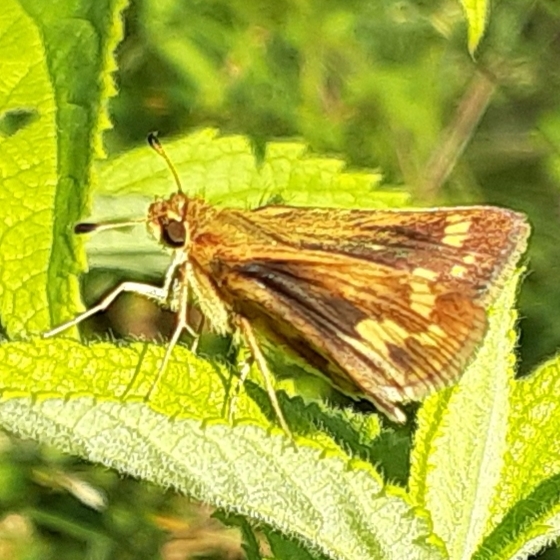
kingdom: Animalia
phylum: Arthropoda
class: Insecta
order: Lepidoptera
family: Hesperiidae
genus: Polites
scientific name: Polites coras
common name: Peck's skipper
